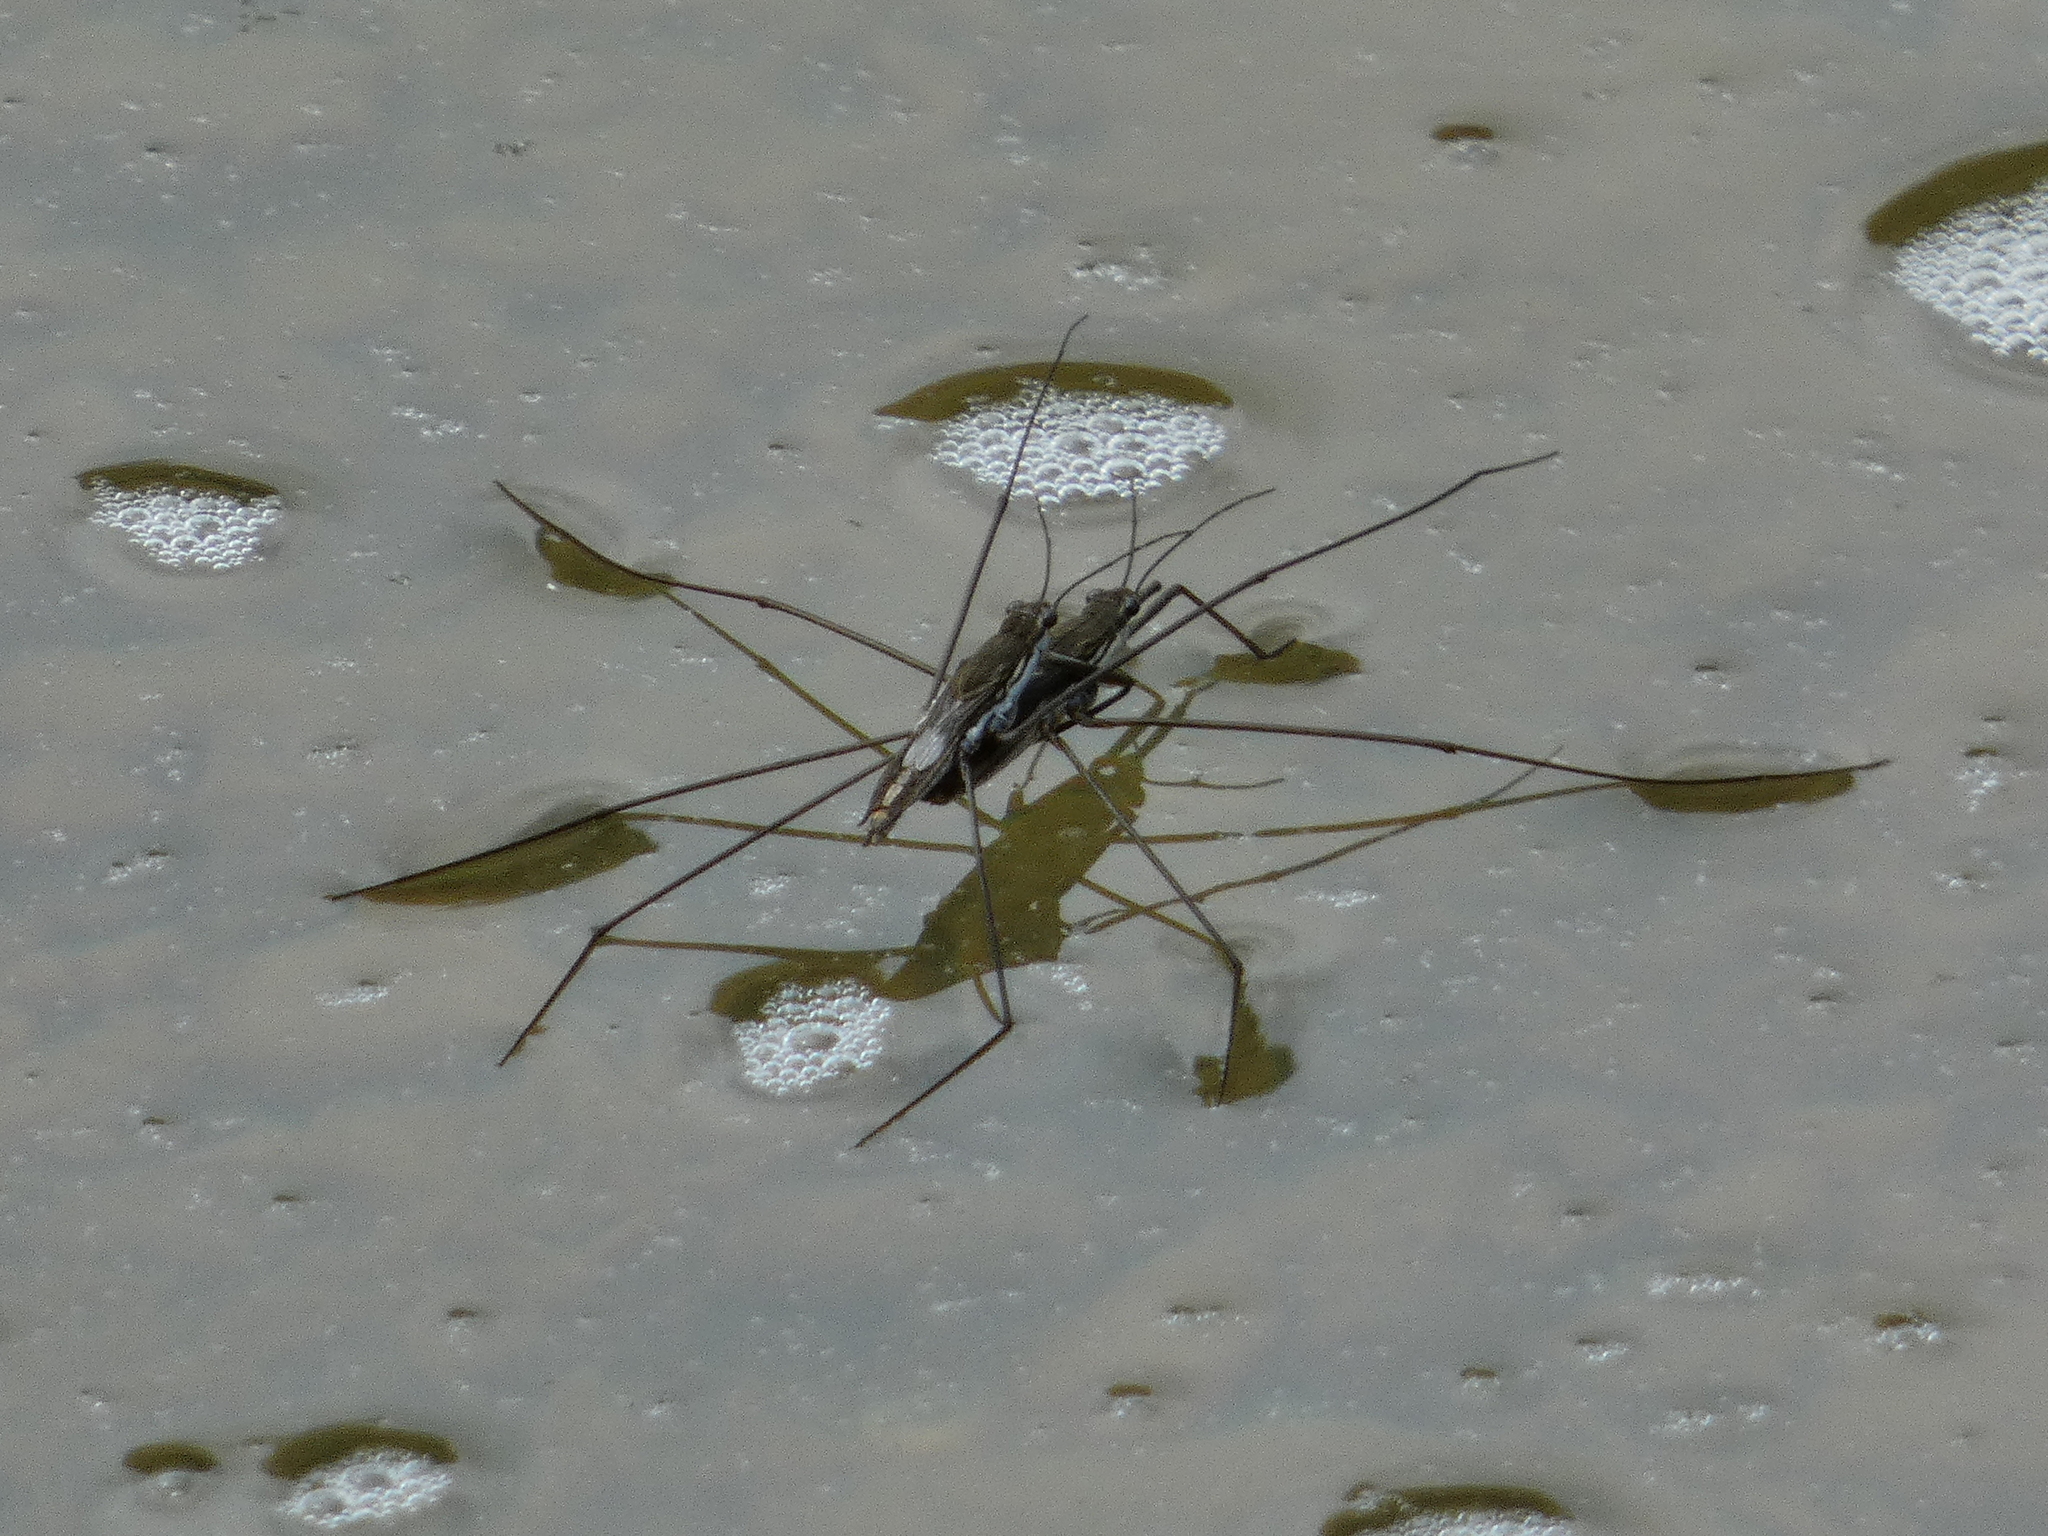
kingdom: Animalia
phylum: Arthropoda
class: Insecta
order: Hemiptera
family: Gerridae
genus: Aquarius
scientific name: Aquarius paludum
